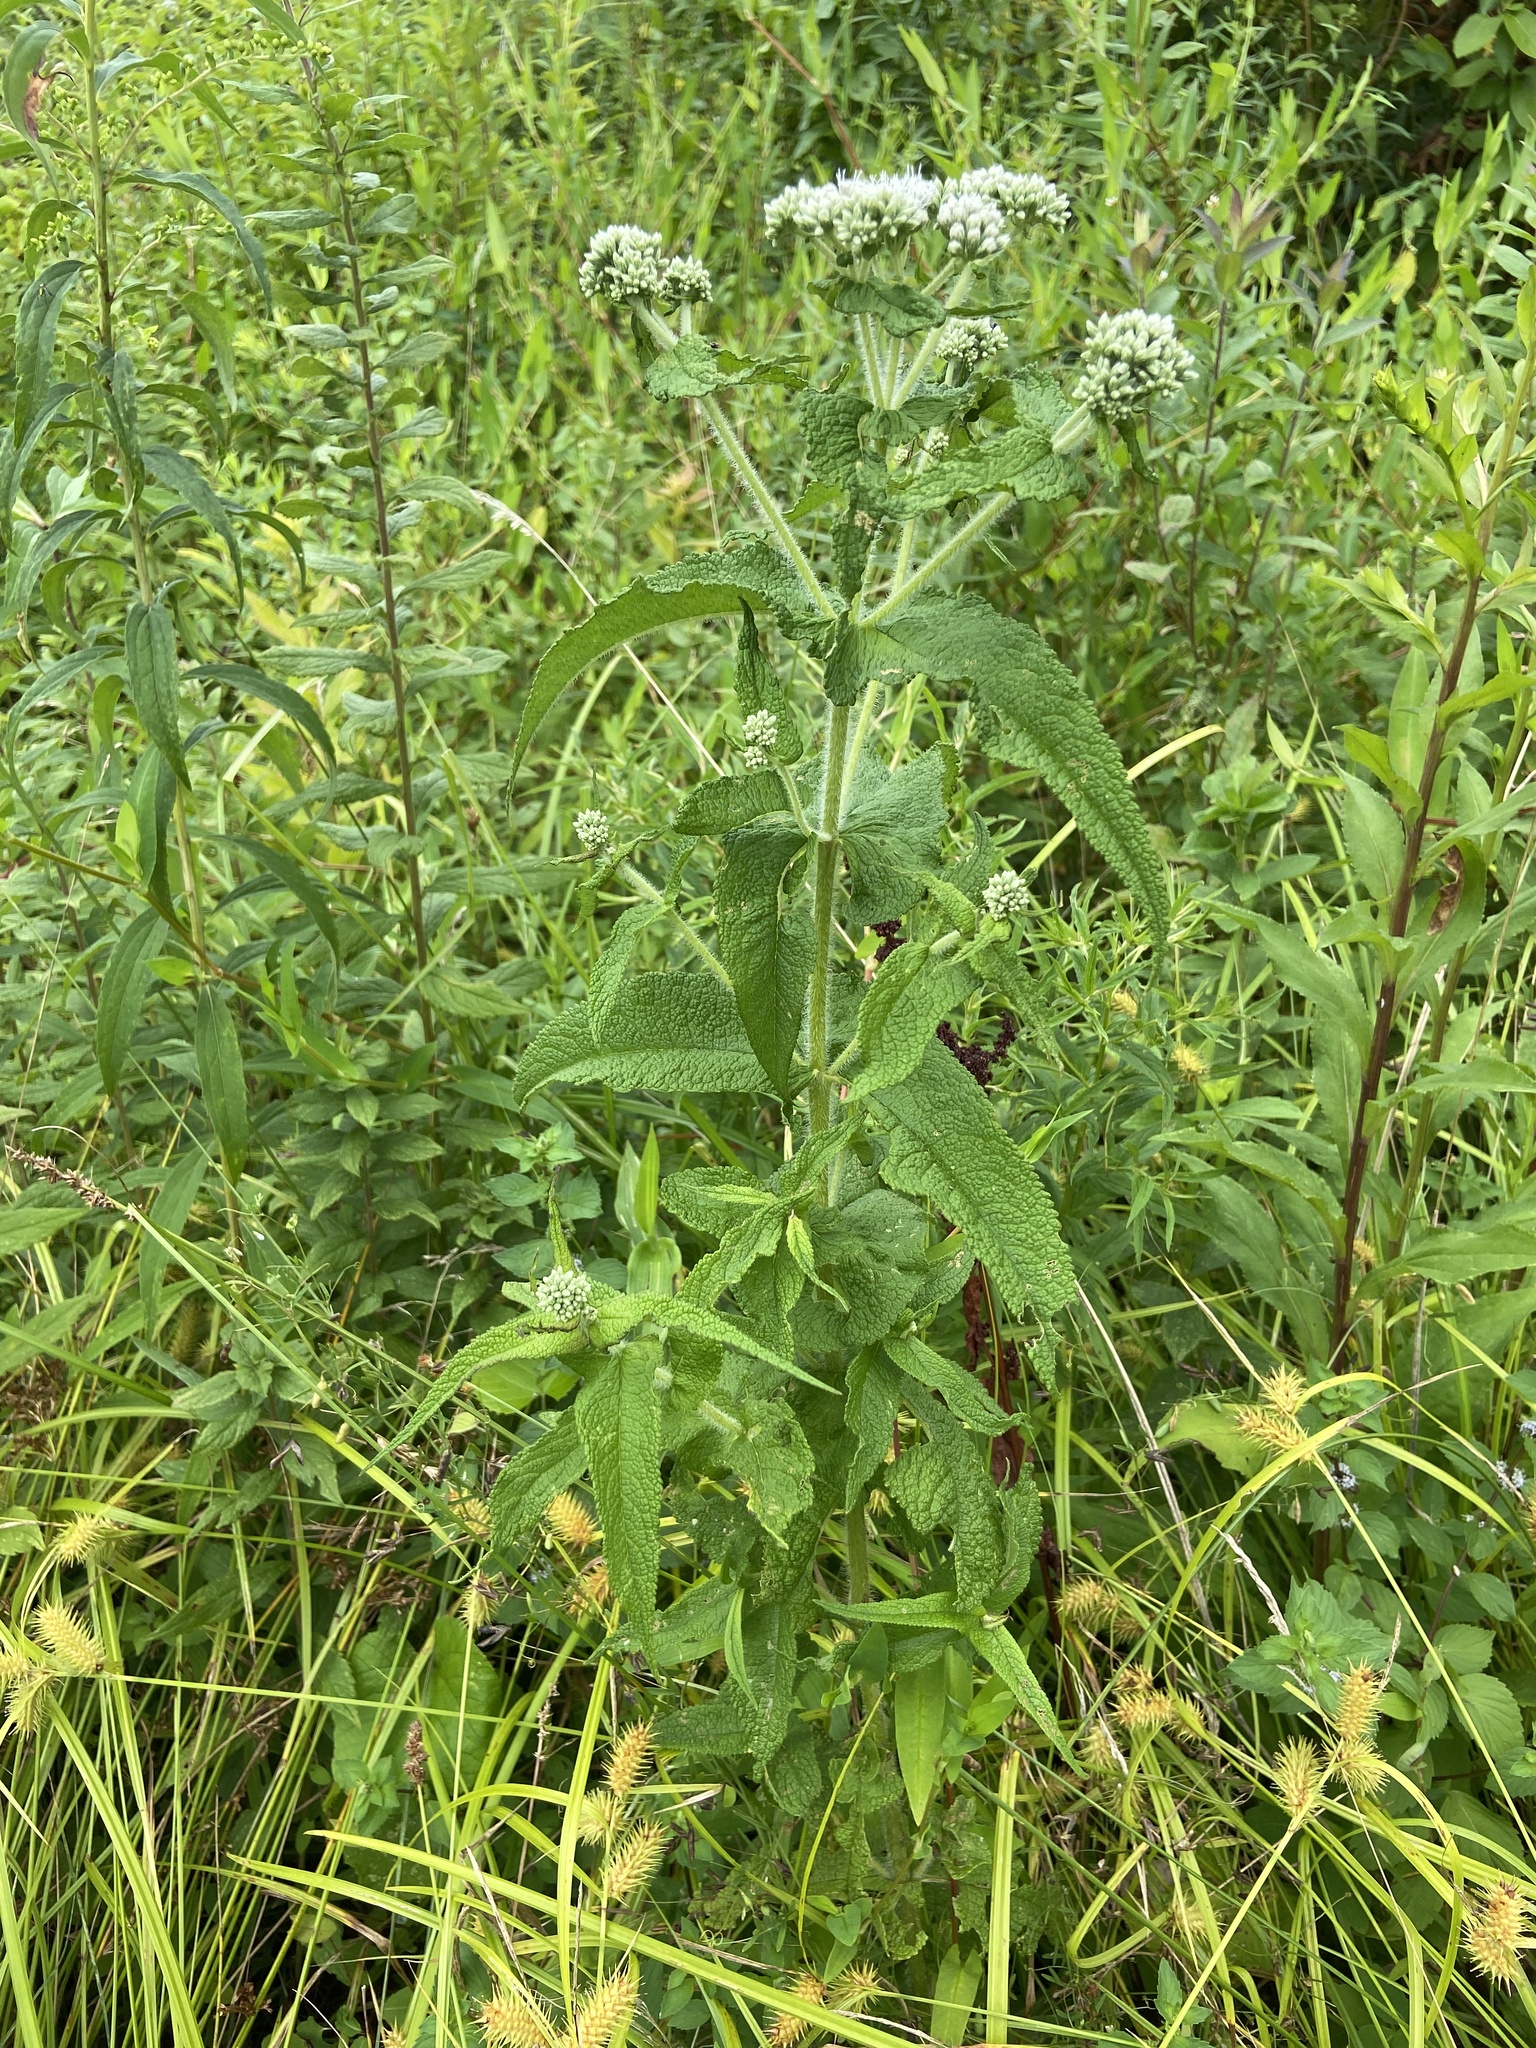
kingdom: Plantae
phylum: Tracheophyta
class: Magnoliopsida
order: Asterales
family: Asteraceae
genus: Eupatorium
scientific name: Eupatorium perfoliatum
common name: Boneset
